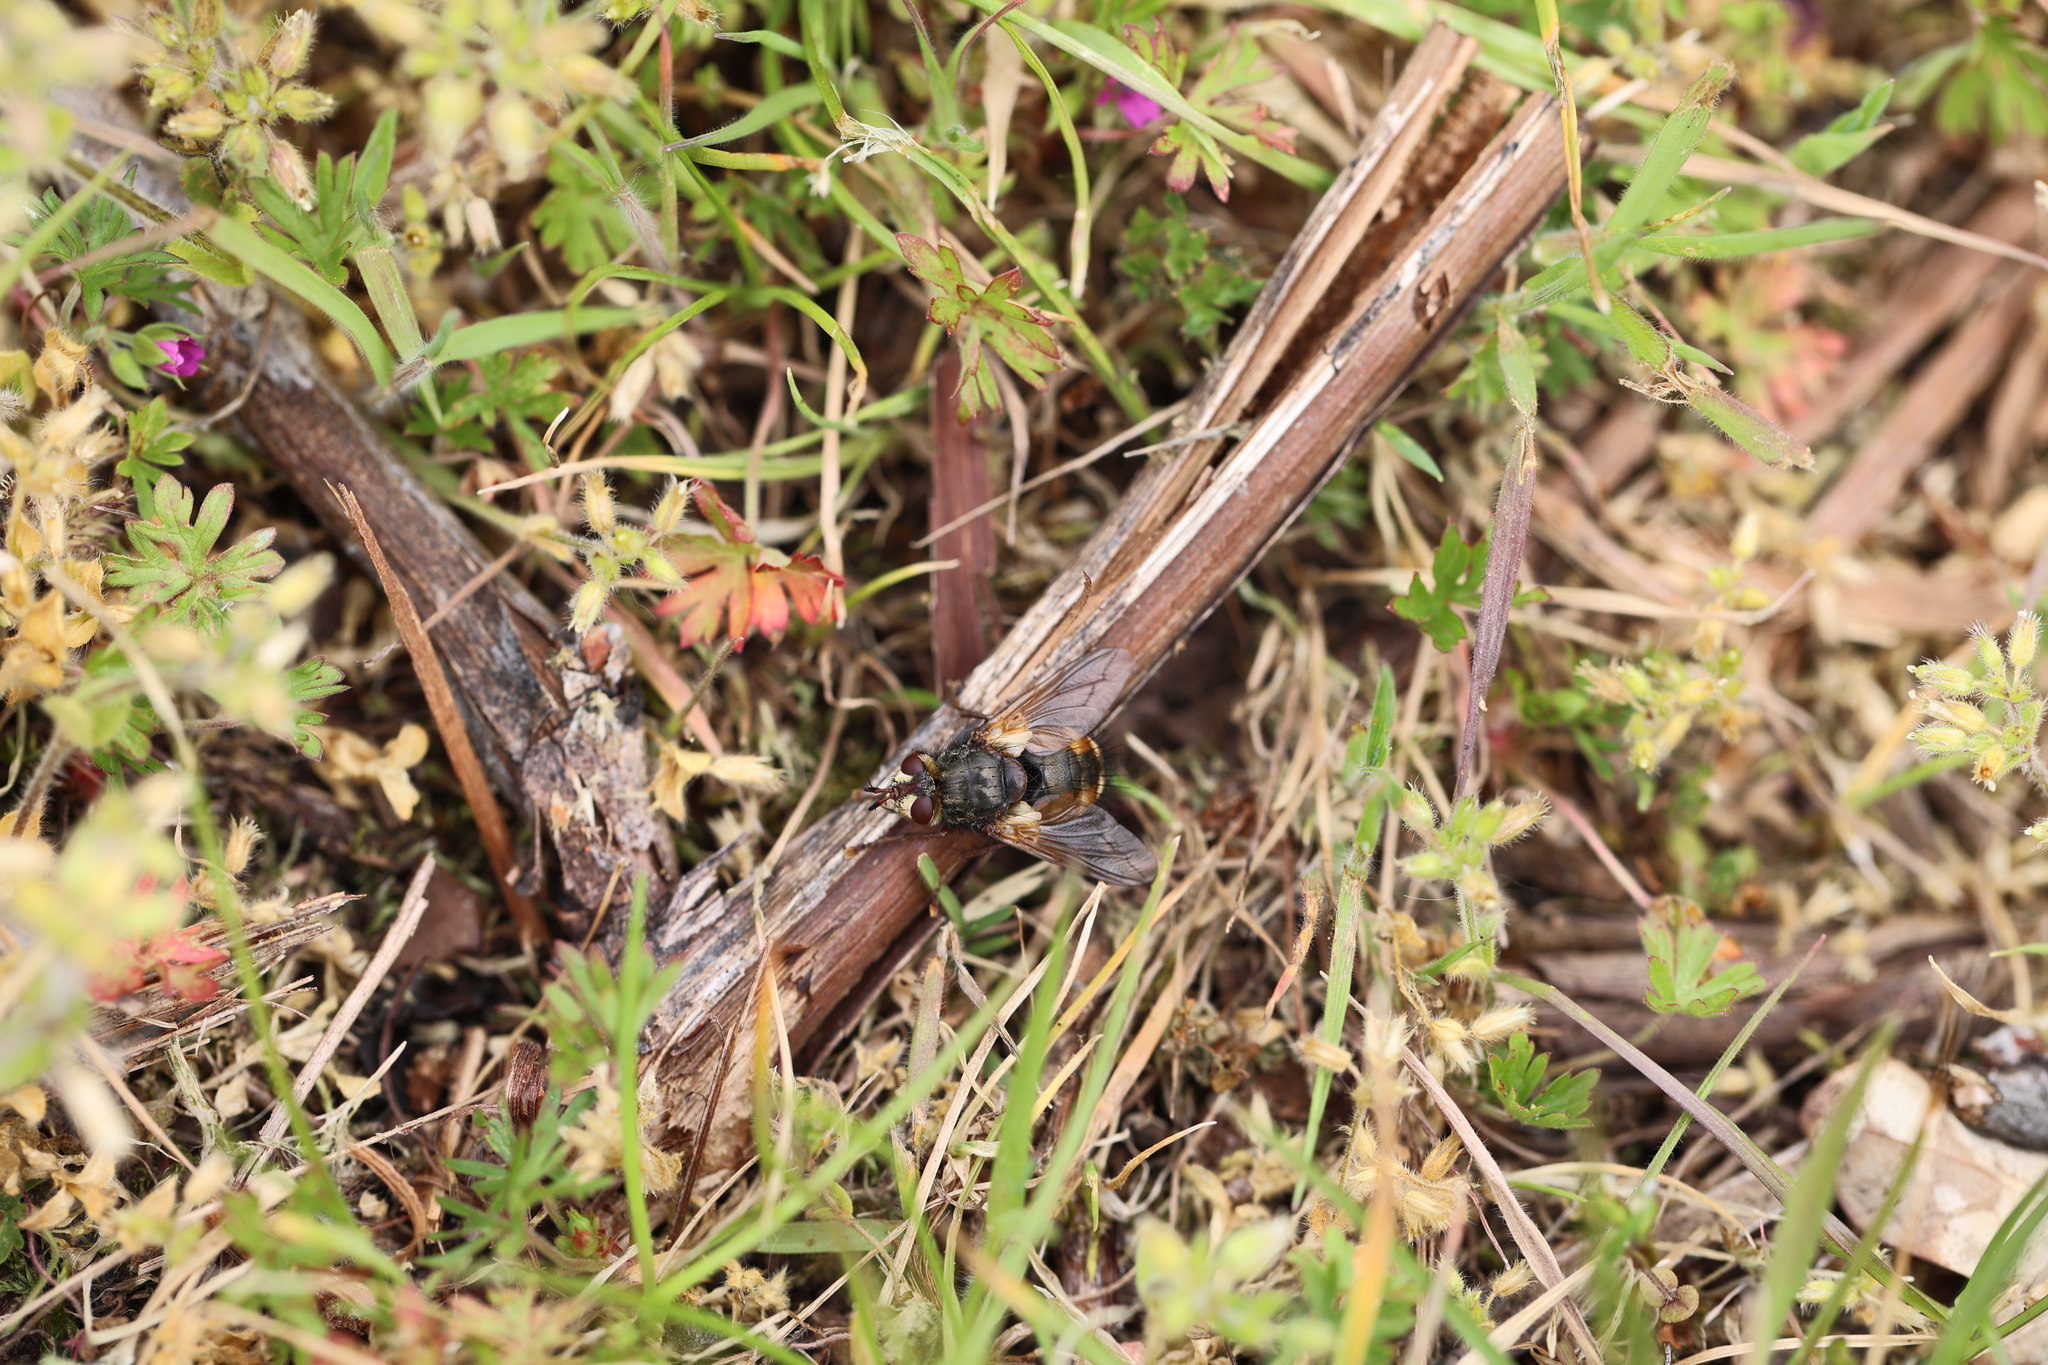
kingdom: Animalia
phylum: Arthropoda
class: Insecta
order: Diptera
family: Tachinidae
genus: Tachina
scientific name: Tachina fera
